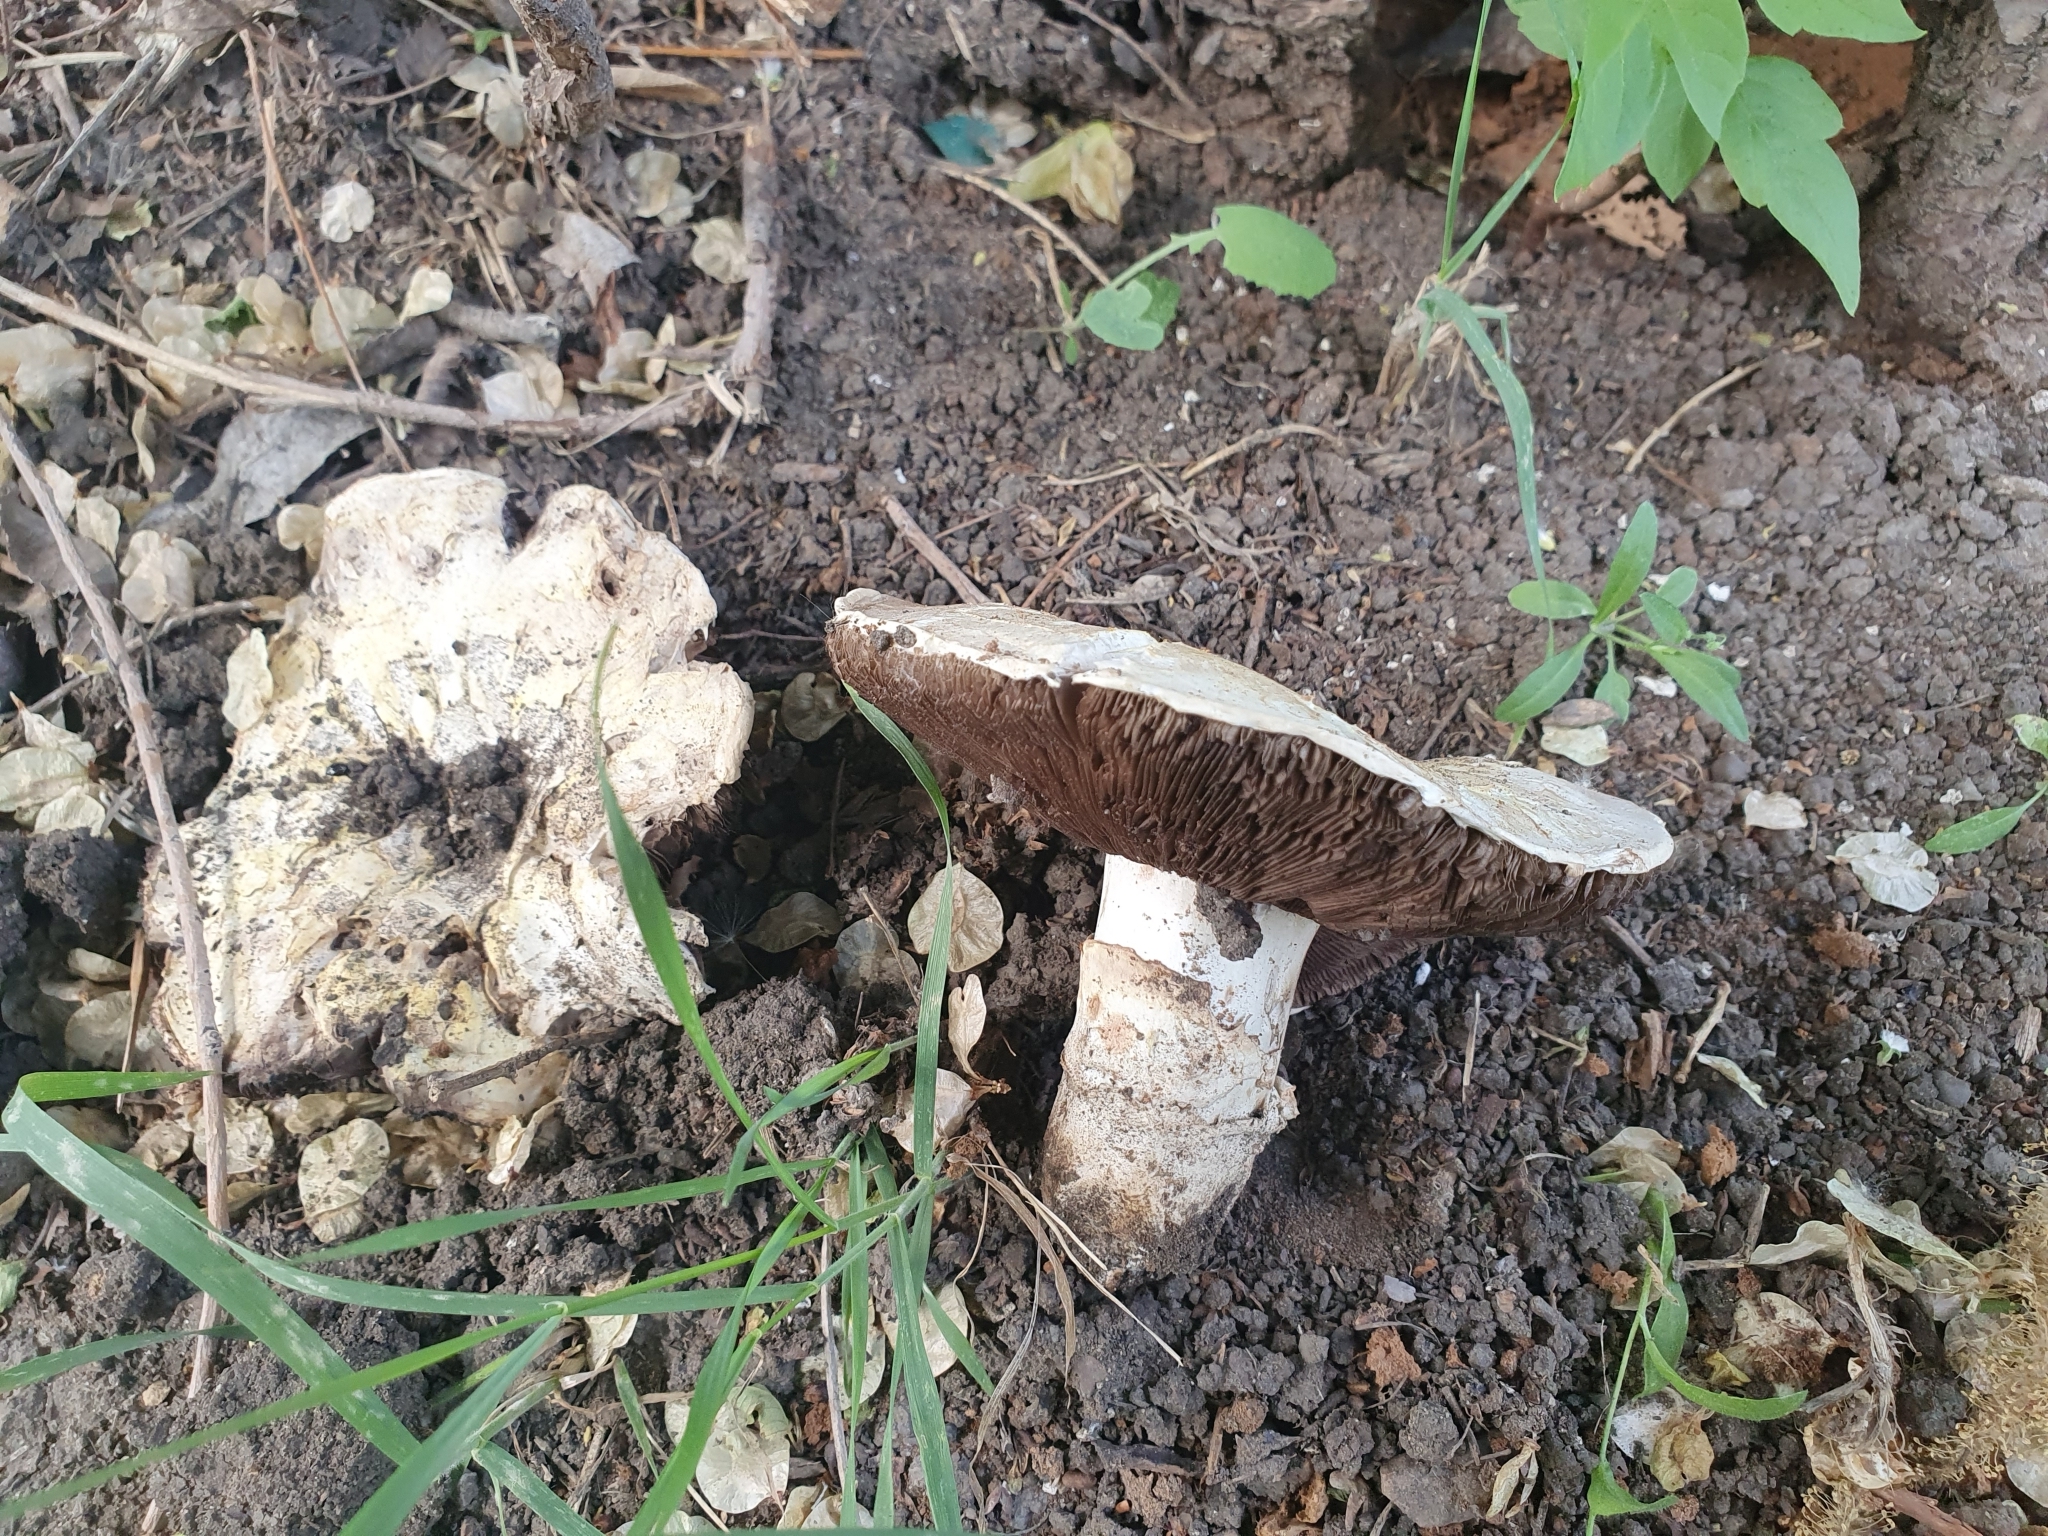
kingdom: Fungi
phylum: Basidiomycota
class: Agaricomycetes
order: Agaricales
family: Agaricaceae
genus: Agaricus
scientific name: Agaricus bitorquis
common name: Pavement mushroom
